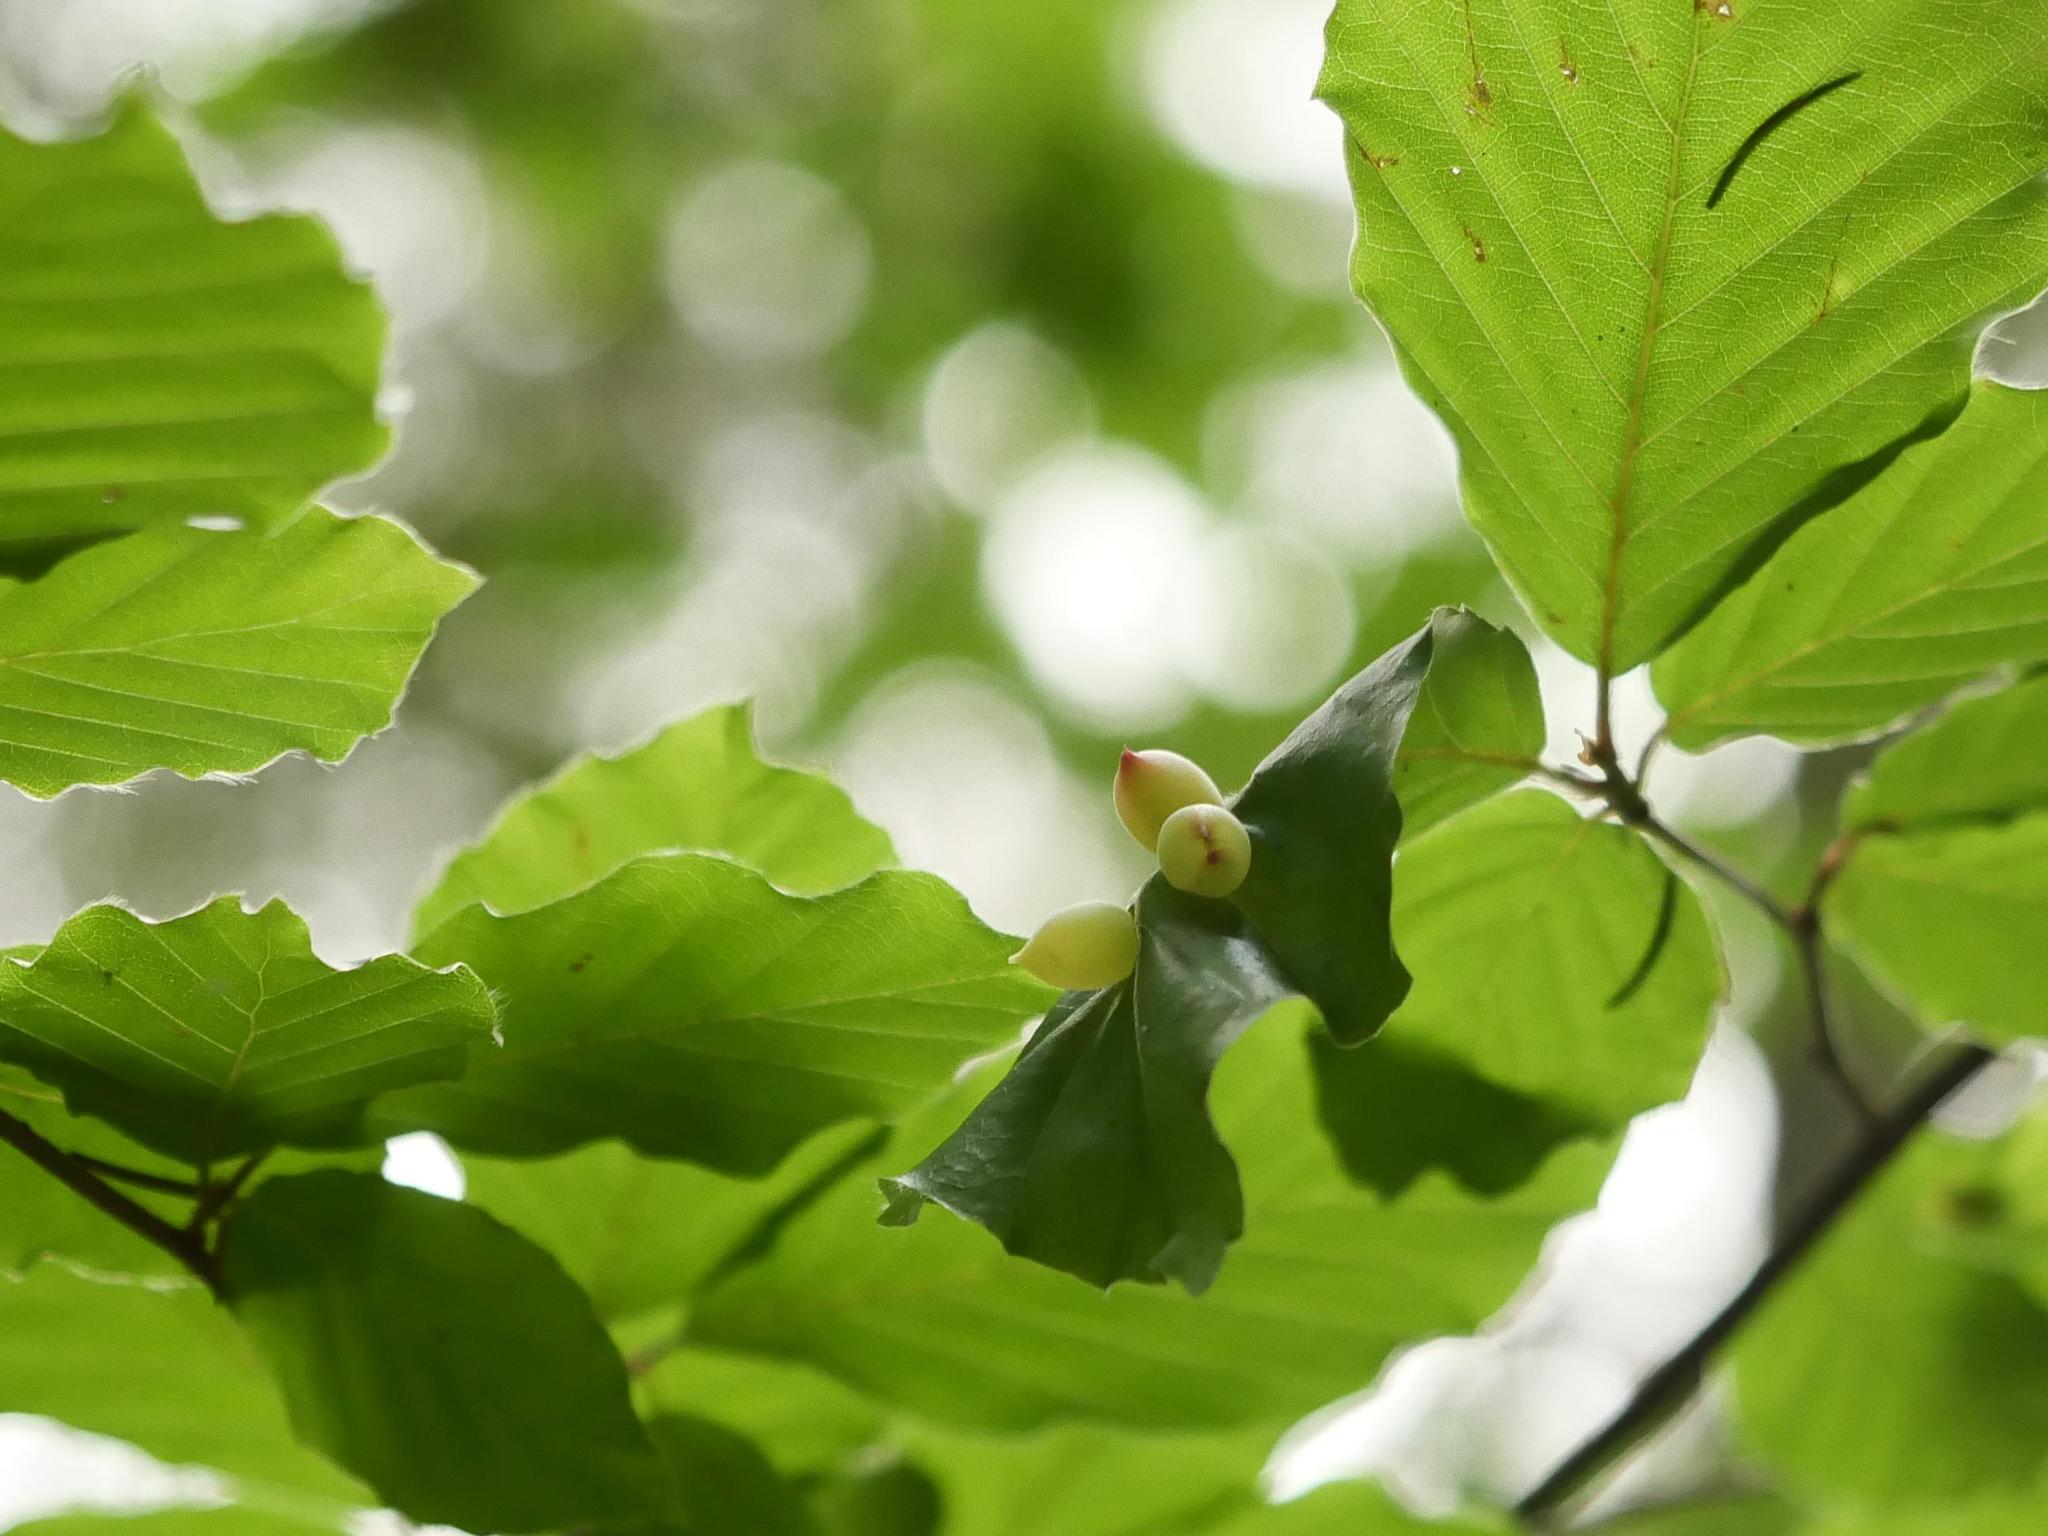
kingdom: Animalia
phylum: Arthropoda
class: Insecta
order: Diptera
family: Cecidomyiidae
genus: Mikiola
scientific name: Mikiola fagi
